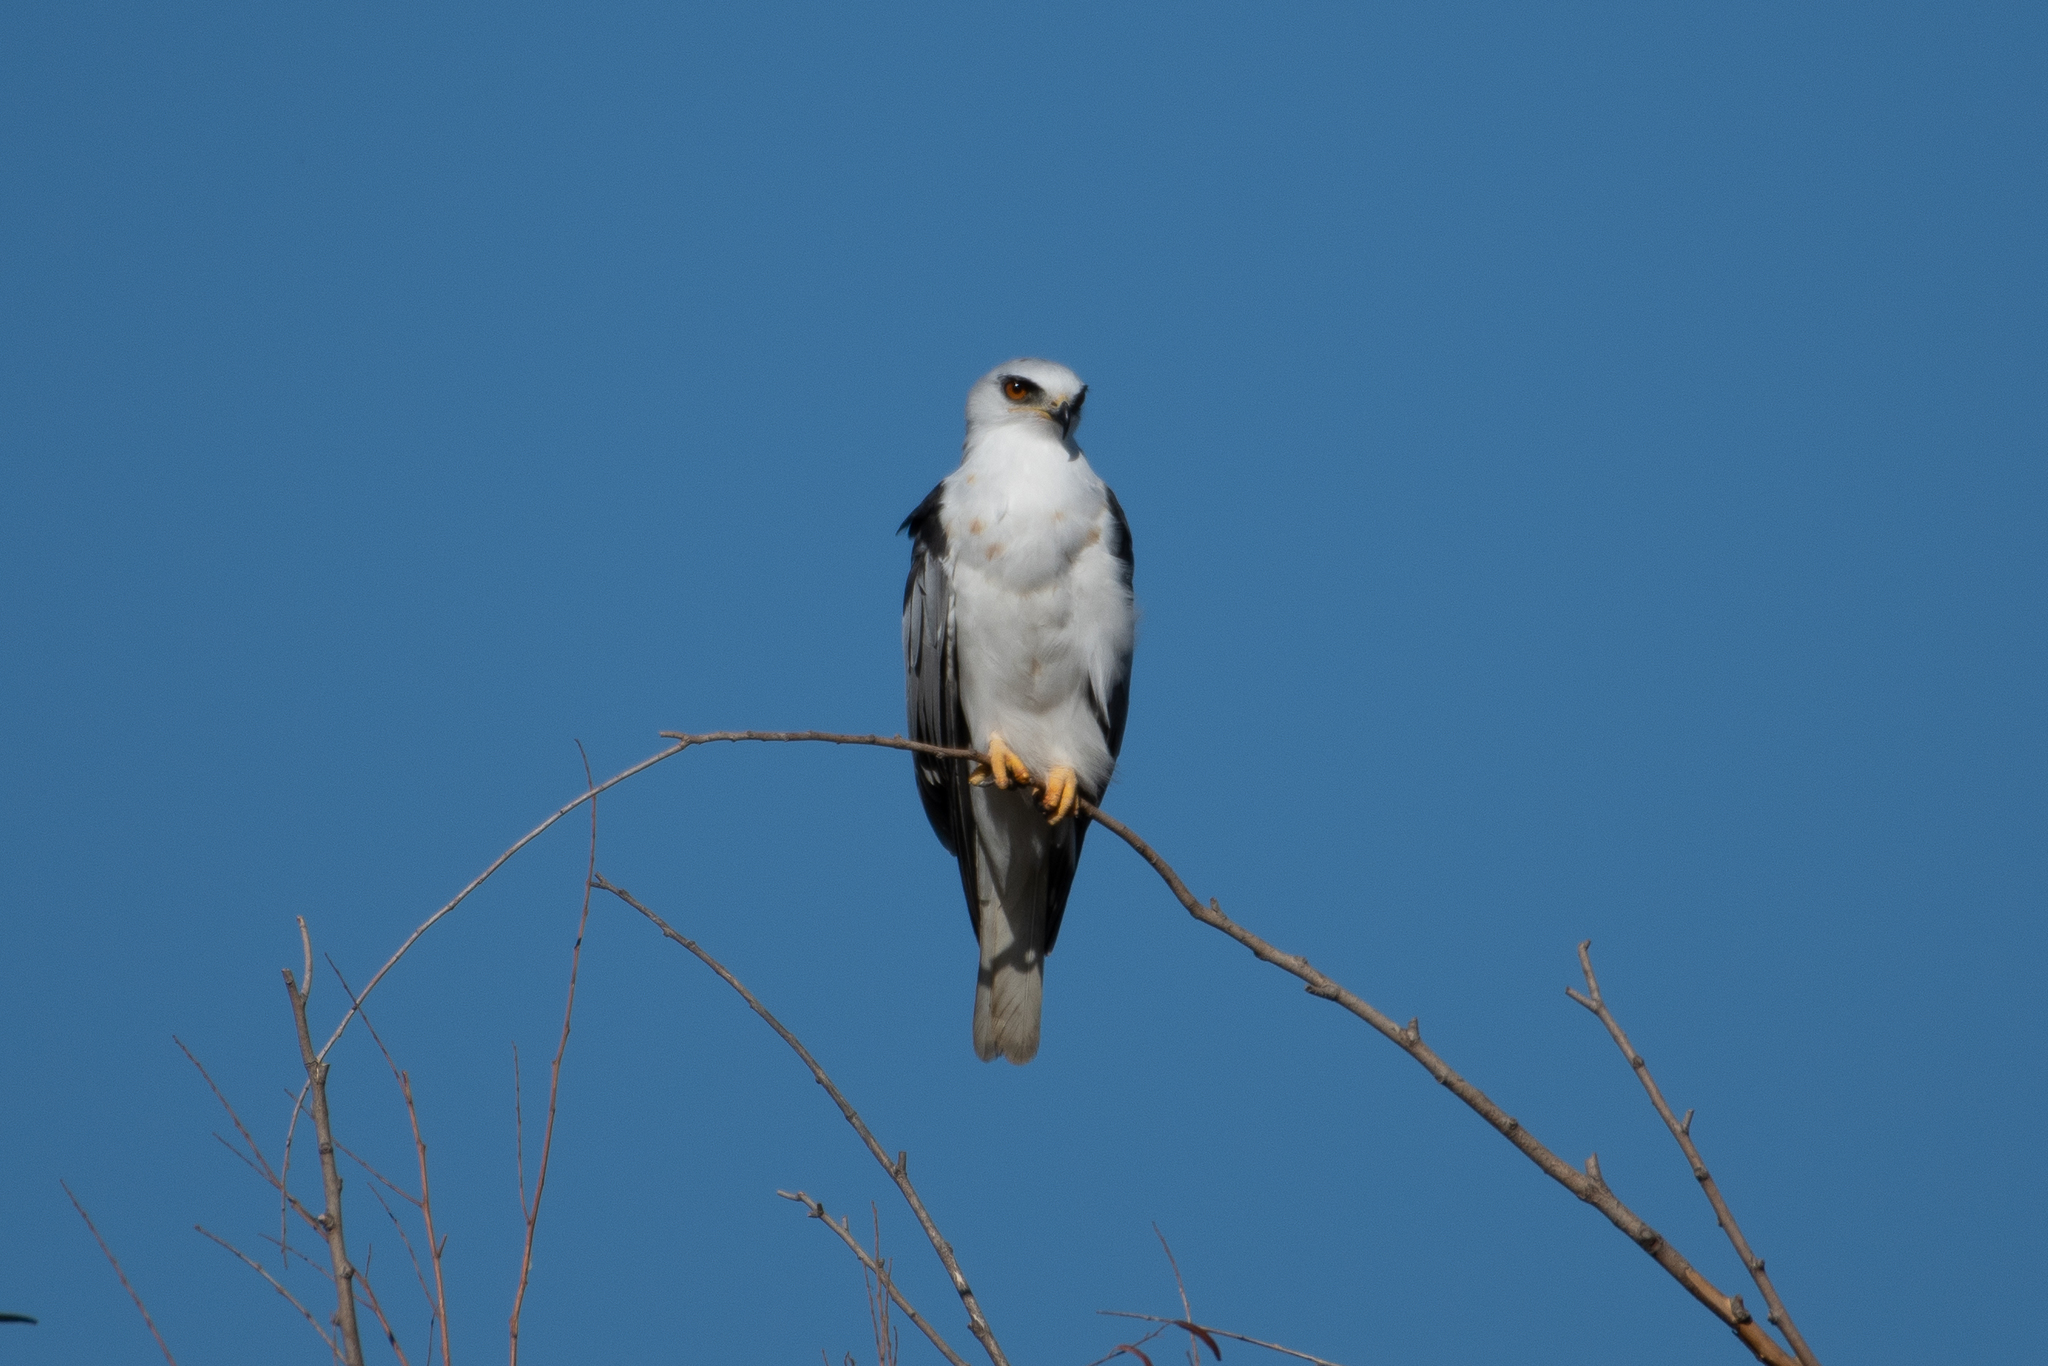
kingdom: Animalia
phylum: Chordata
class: Aves
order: Accipitriformes
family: Accipitridae
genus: Elanus
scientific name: Elanus leucurus
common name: White-tailed kite
